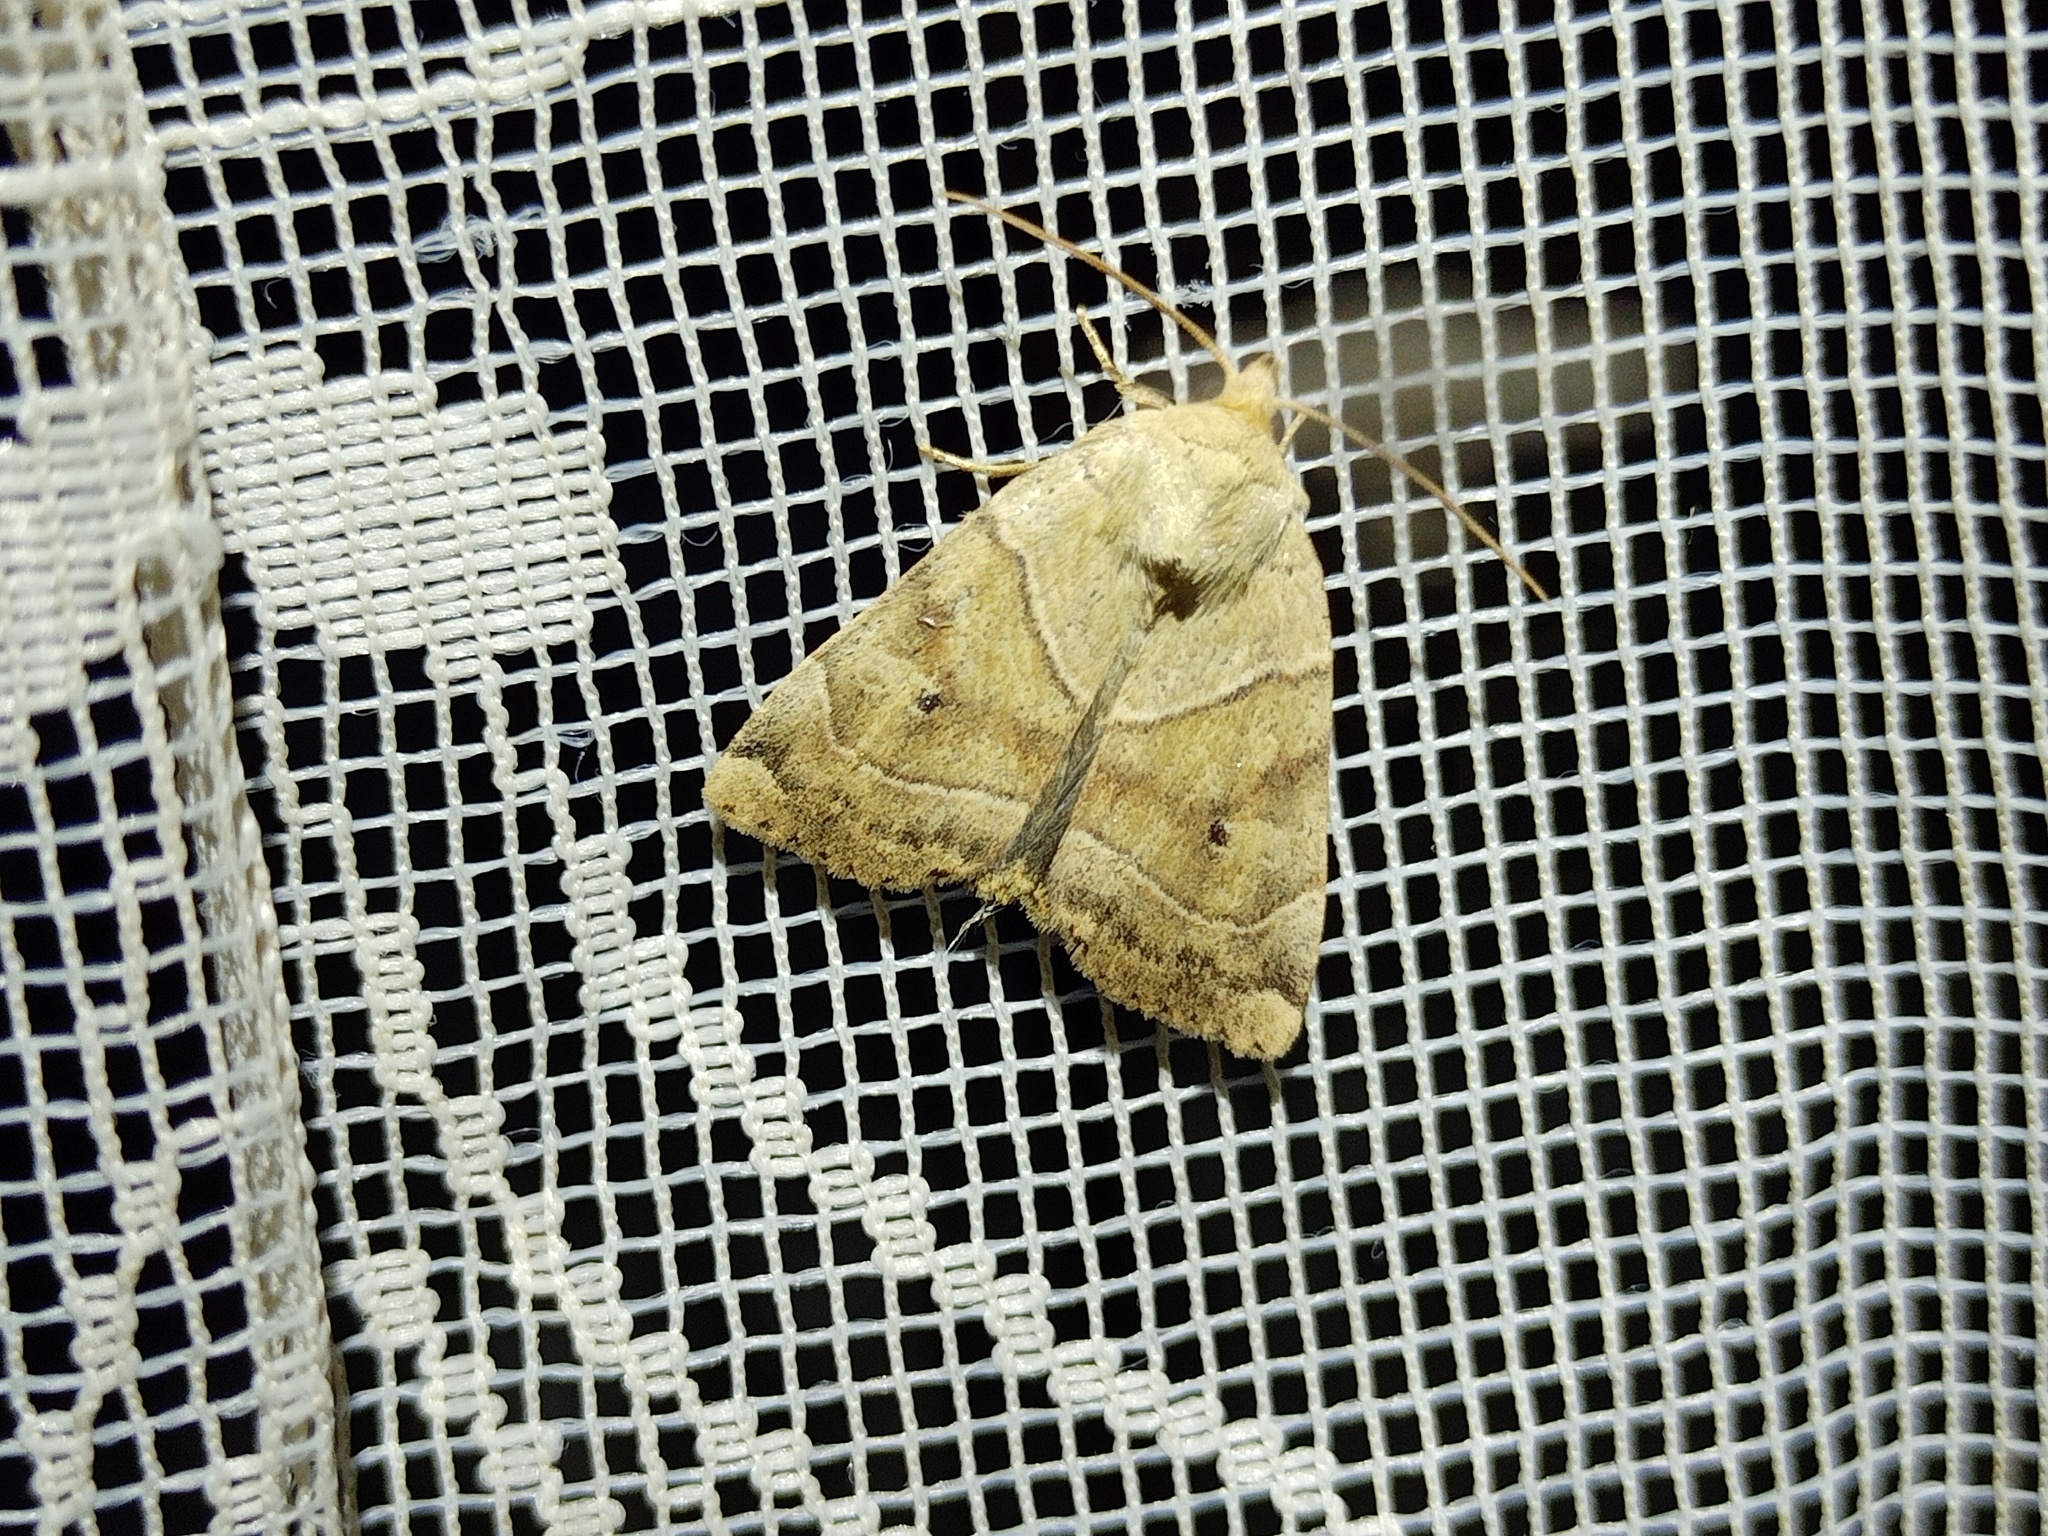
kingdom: Animalia
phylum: Arthropoda
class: Insecta
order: Lepidoptera
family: Noctuidae
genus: Cosmia
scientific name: Cosmia trapezina
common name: Dun-bar
